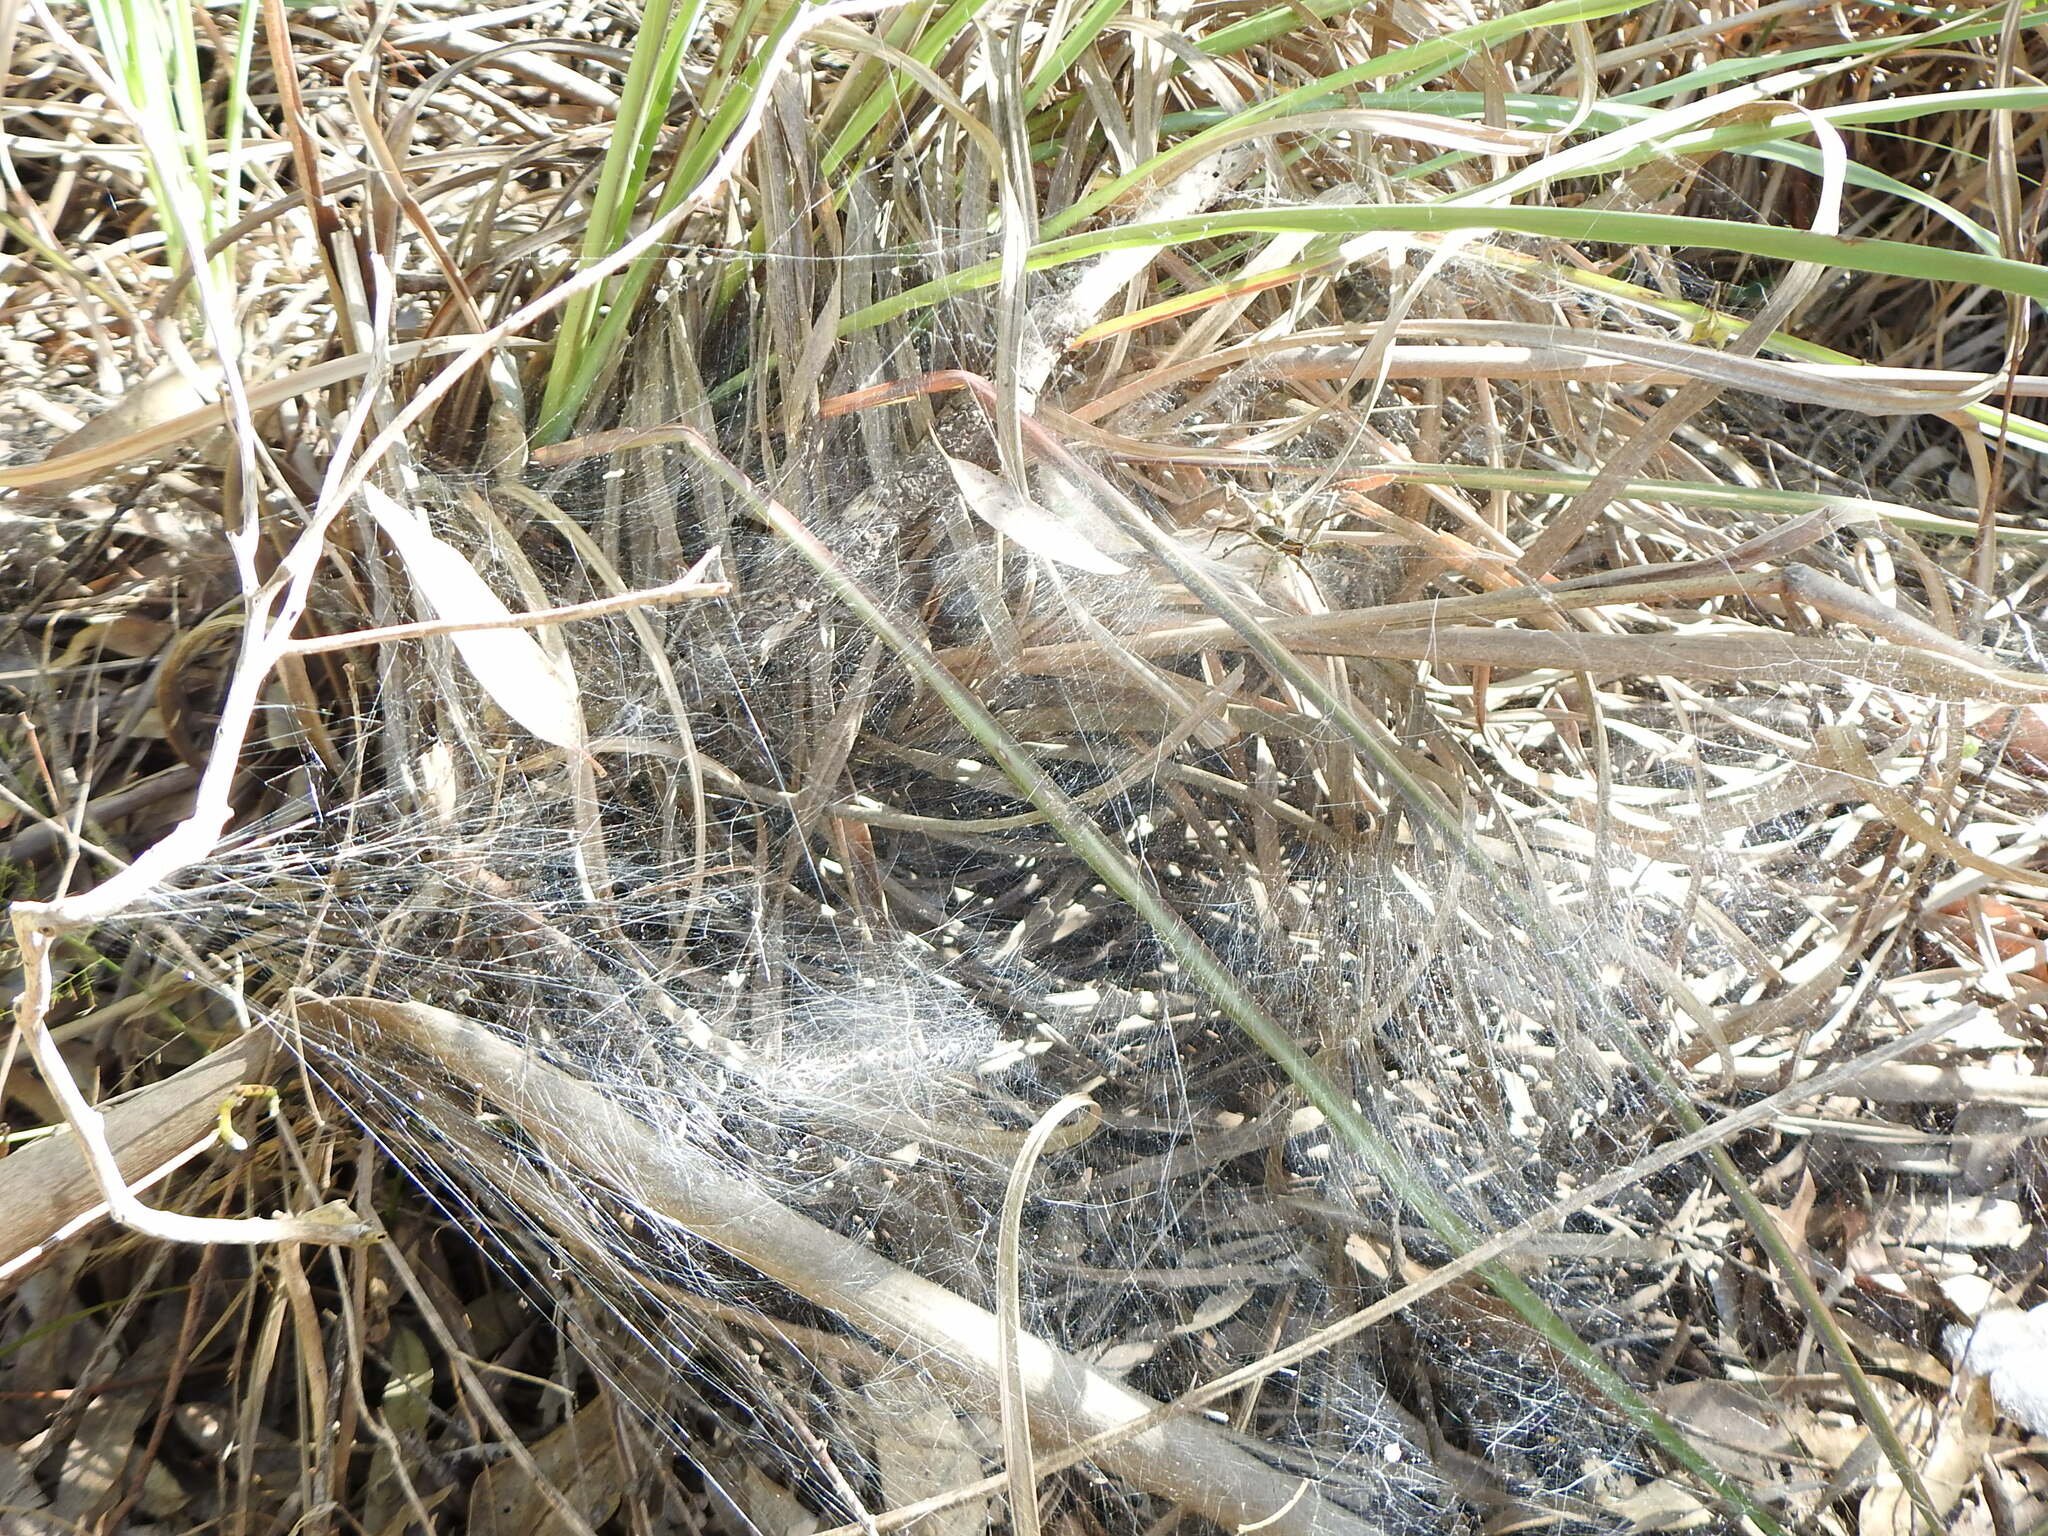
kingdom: Animalia
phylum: Arthropoda
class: Arachnida
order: Araneae
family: Lycosidae
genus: Aglaoctenus
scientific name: Aglaoctenus lagotis
